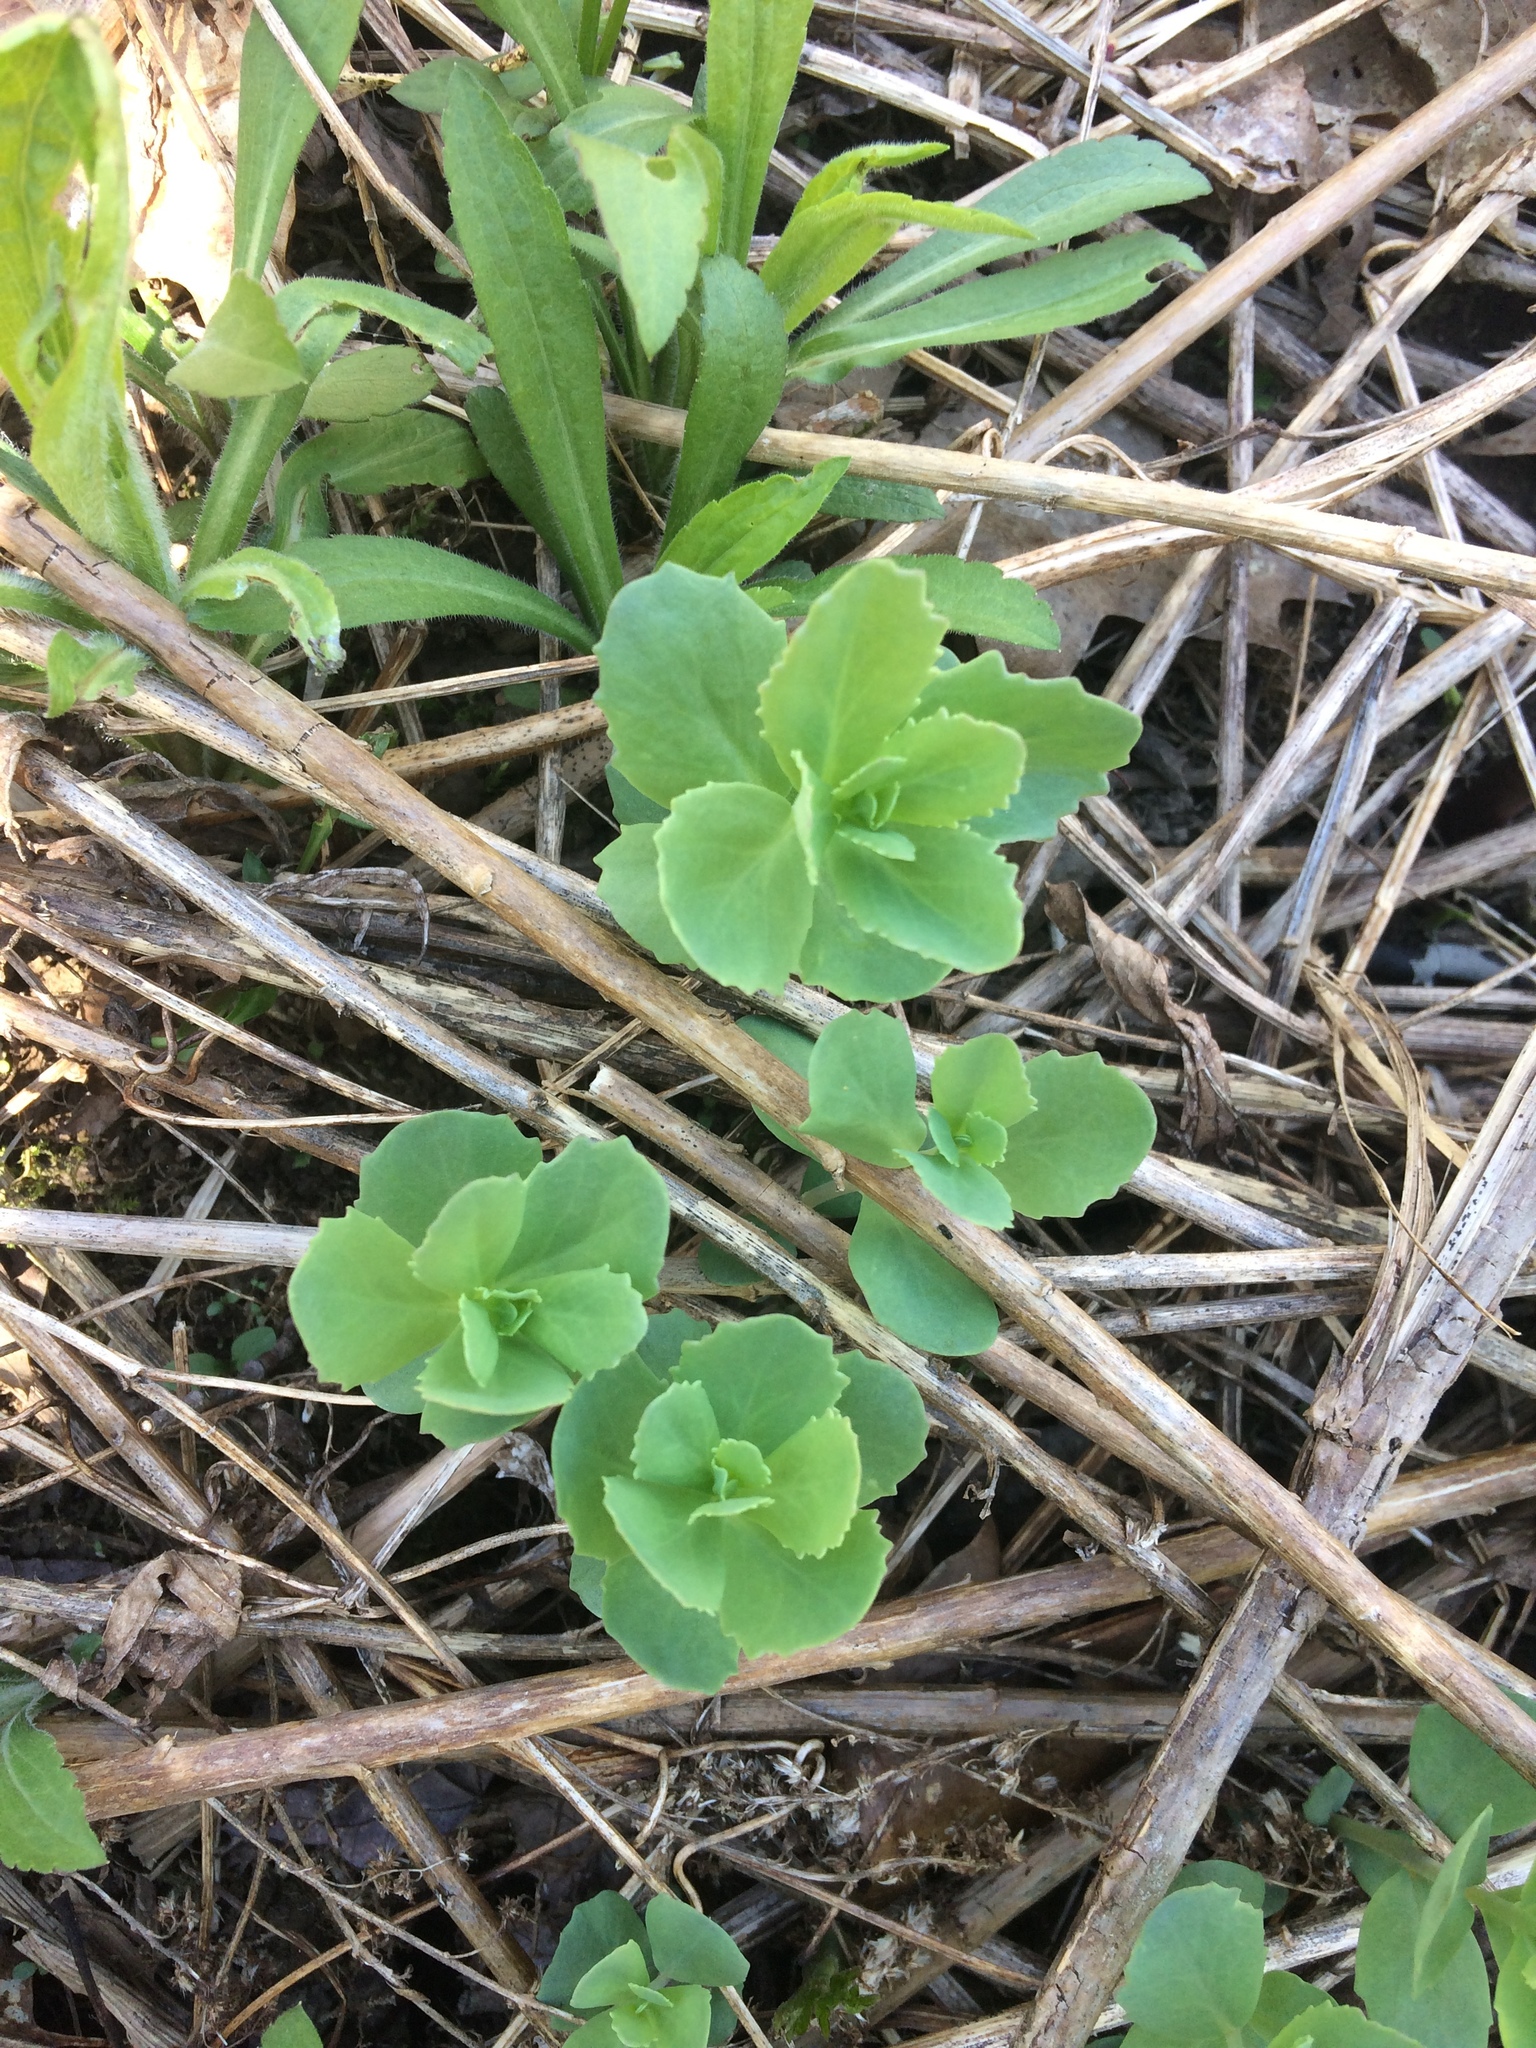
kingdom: Plantae
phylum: Tracheophyta
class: Magnoliopsida
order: Saxifragales
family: Crassulaceae
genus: Hylotelephium
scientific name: Hylotelephium telephium
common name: Live-forever
